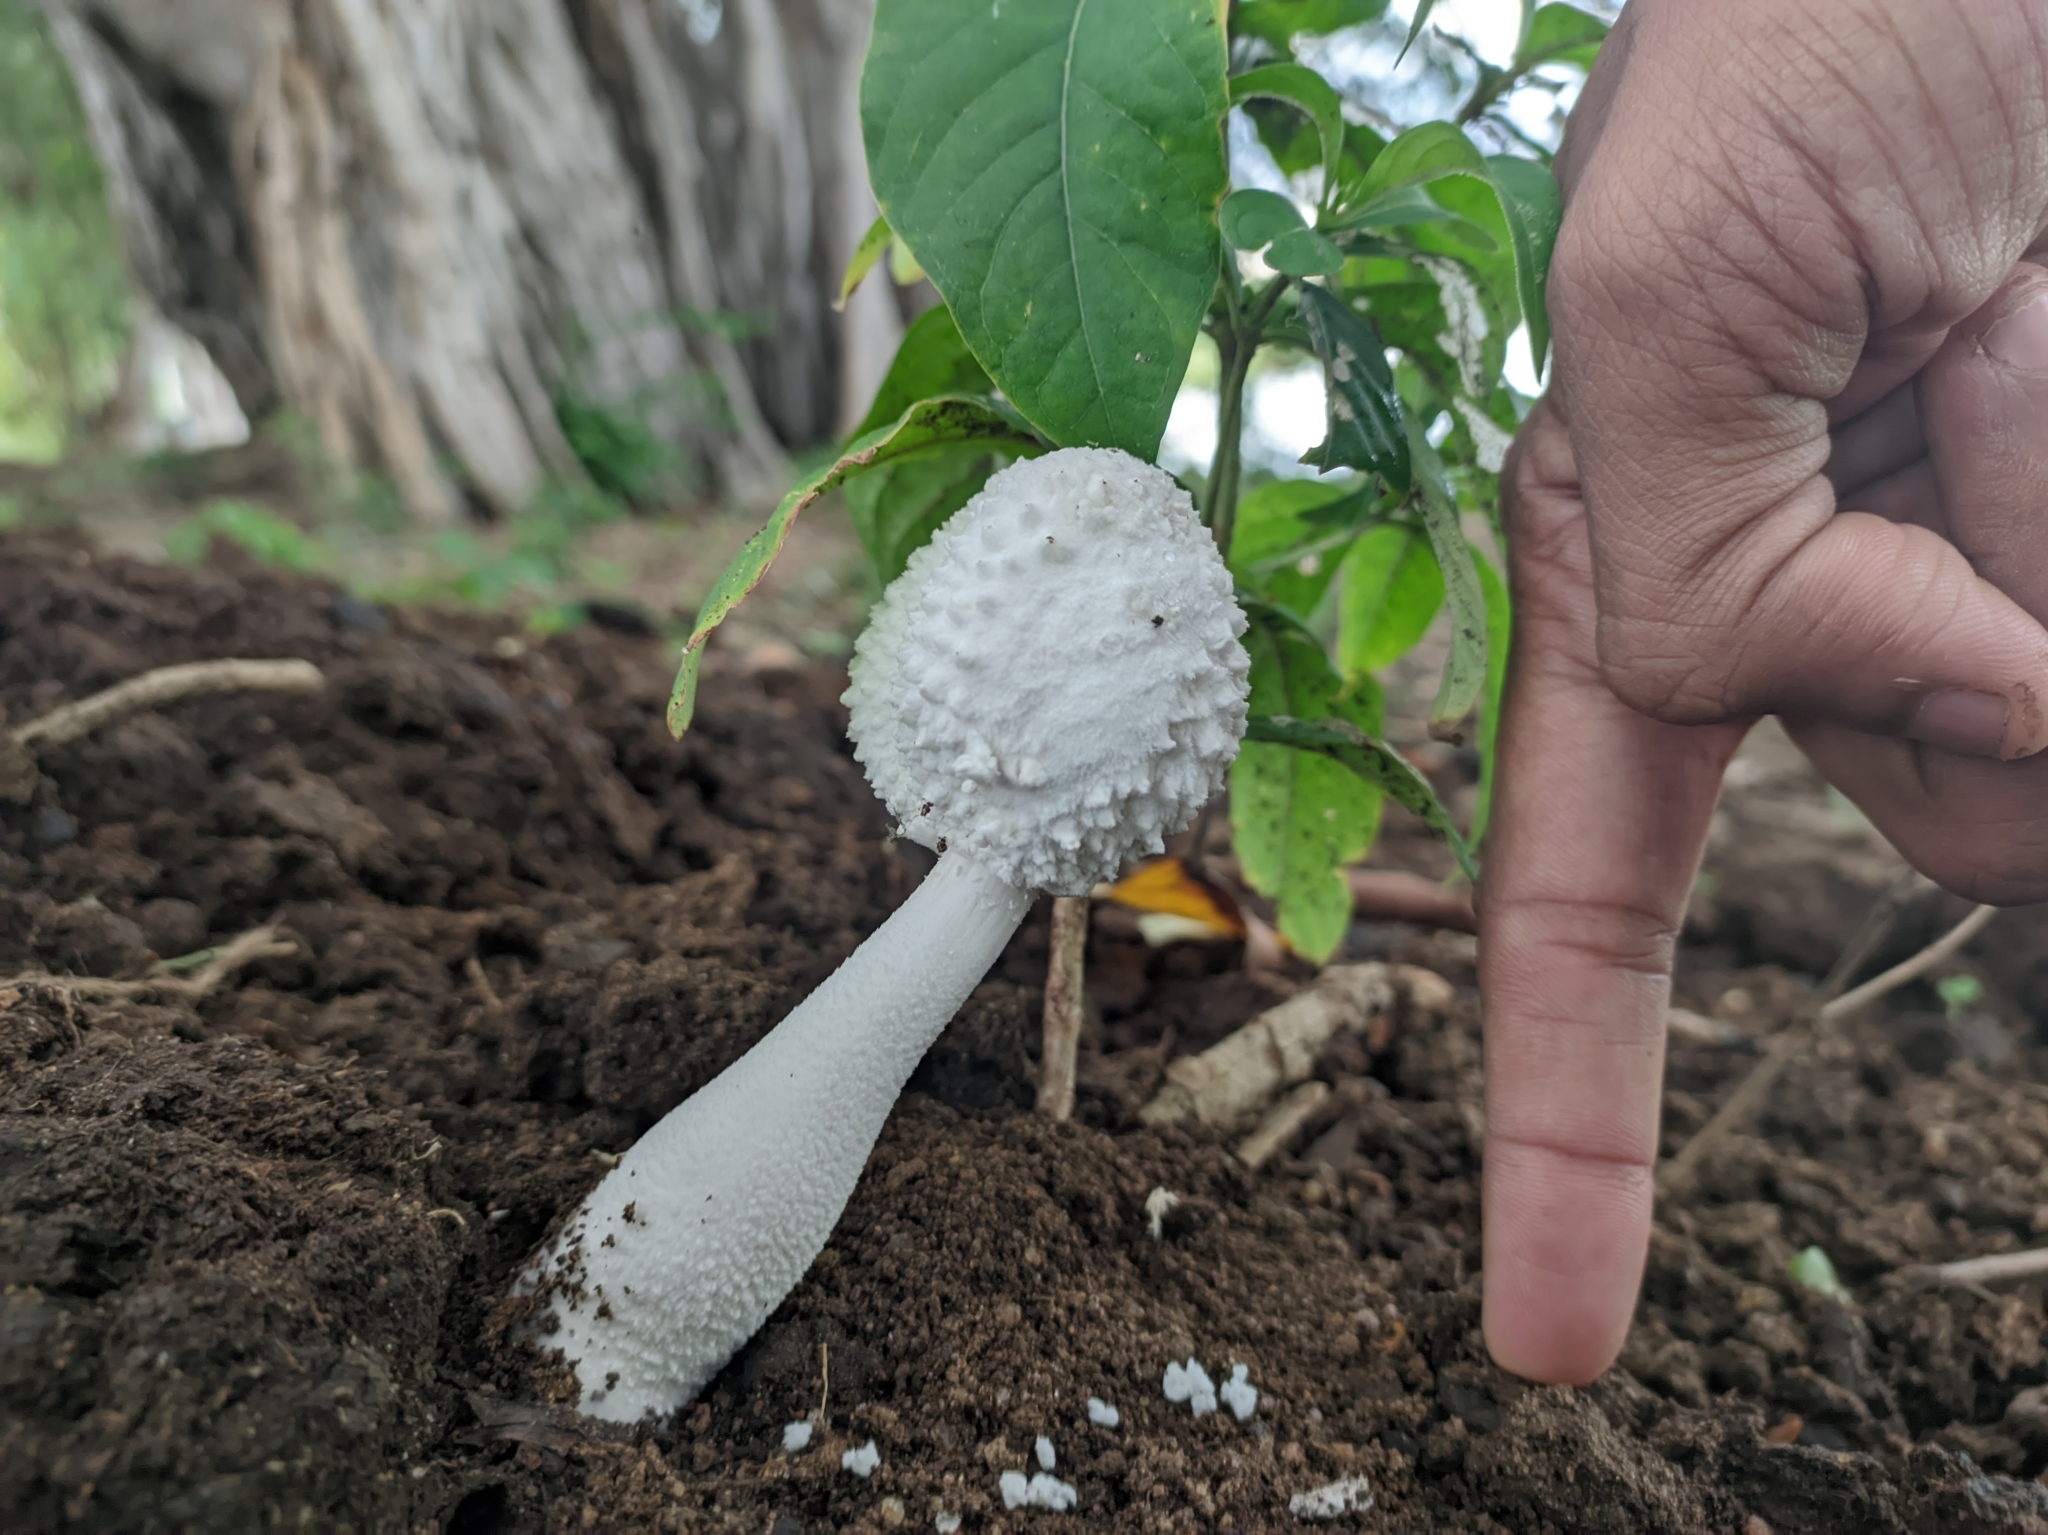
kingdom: Fungi
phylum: Basidiomycota
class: Agaricomycetes
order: Agaricales
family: Agaricaceae
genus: Leucocoprinus
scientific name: Leucocoprinus cretaceus
